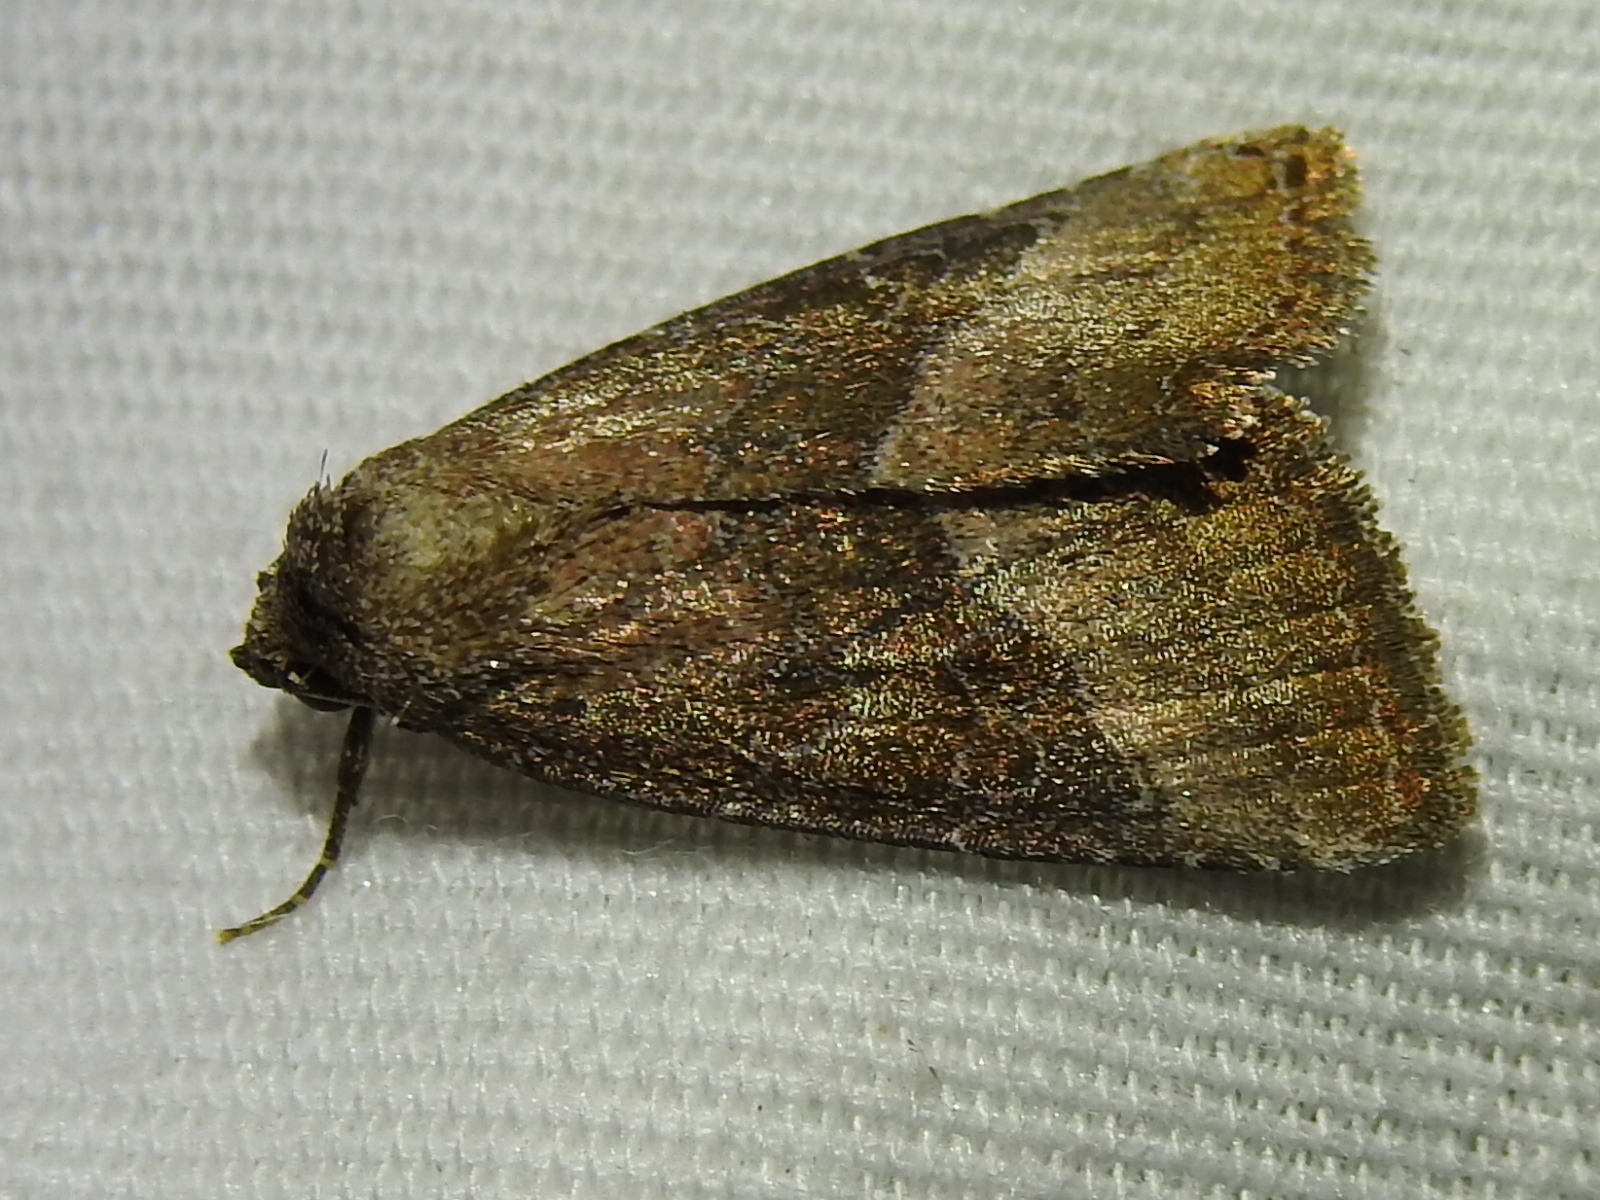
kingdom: Animalia
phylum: Arthropoda
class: Insecta
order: Lepidoptera
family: Noctuidae
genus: Ogdoconta
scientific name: Ogdoconta cinereola
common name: Common pinkband
